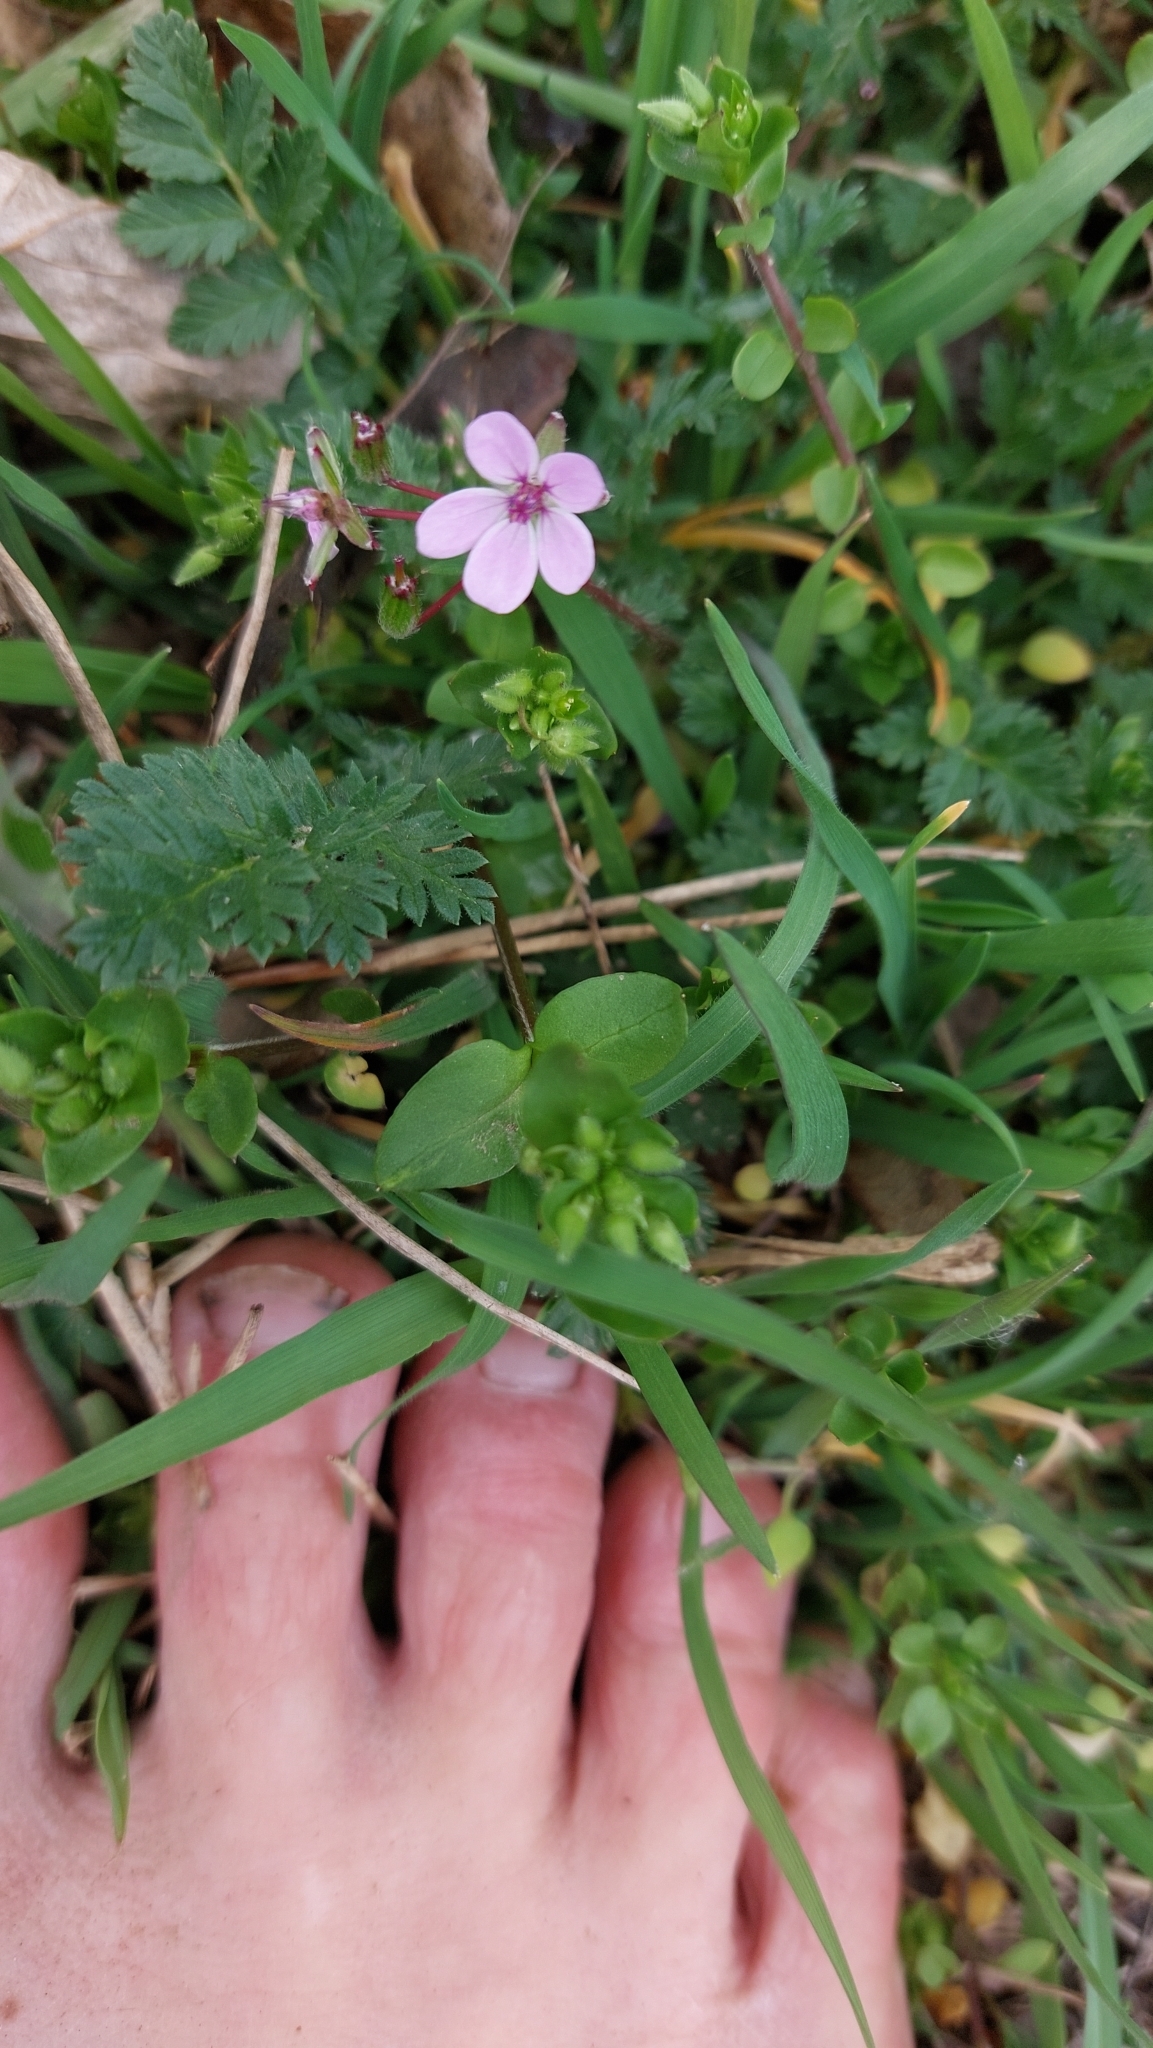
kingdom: Plantae
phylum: Tracheophyta
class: Magnoliopsida
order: Geraniales
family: Geraniaceae
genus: Erodium
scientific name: Erodium cicutarium
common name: Common stork's-bill
